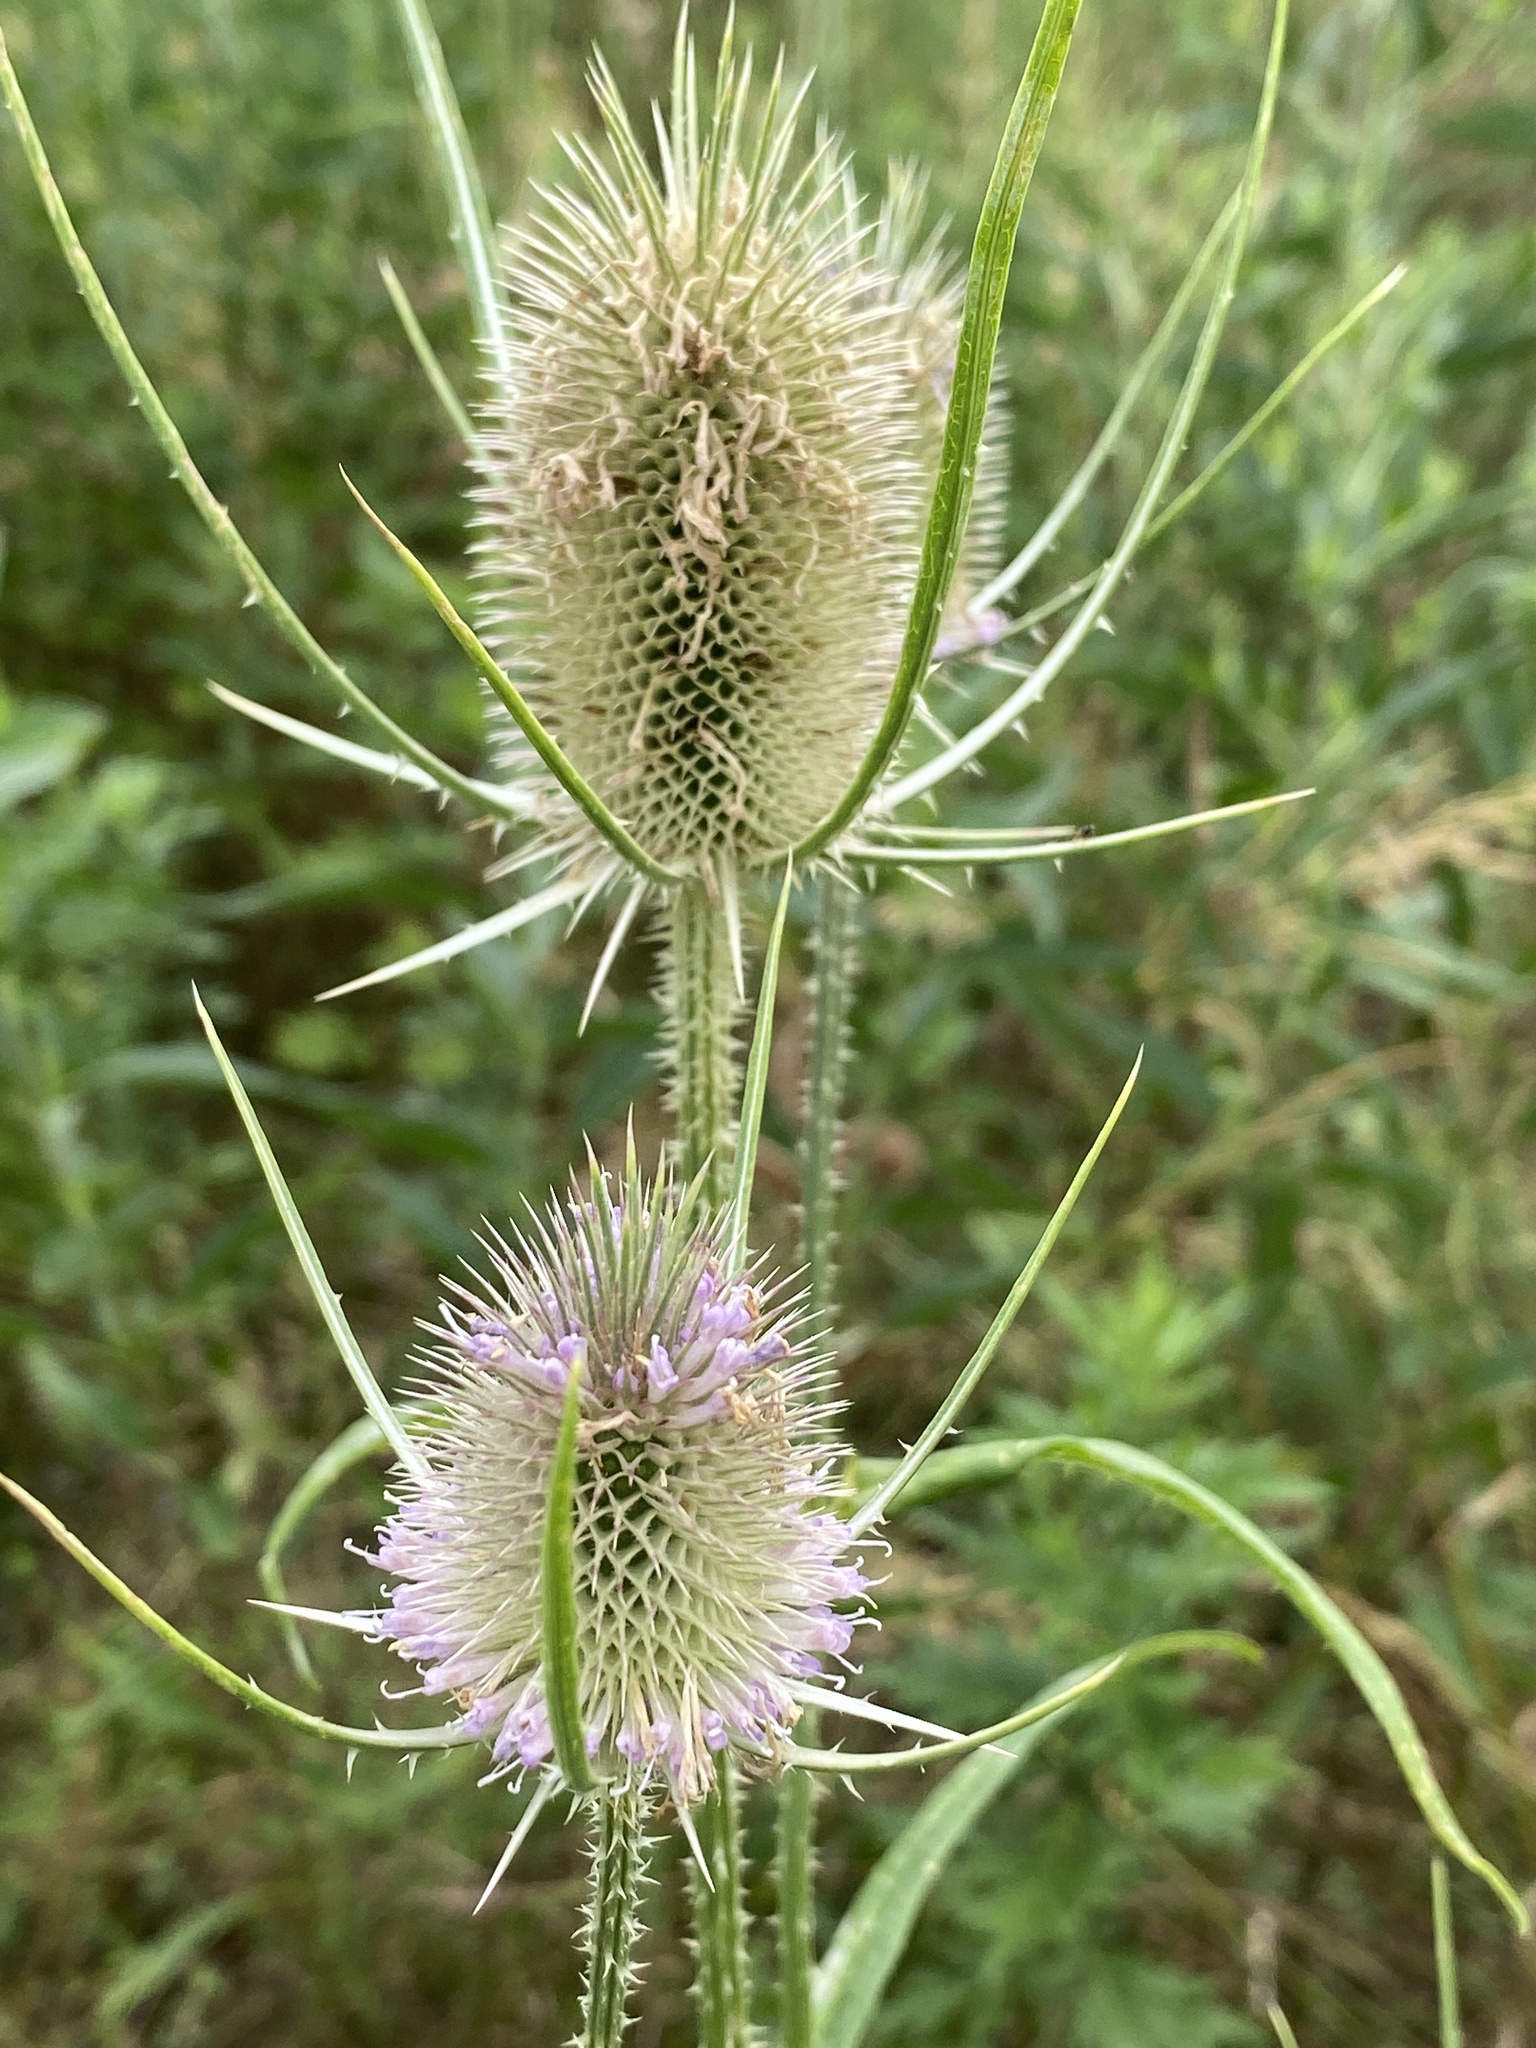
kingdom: Plantae
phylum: Tracheophyta
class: Magnoliopsida
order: Dipsacales
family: Caprifoliaceae
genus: Dipsacus
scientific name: Dipsacus fullonum
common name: Teasel
